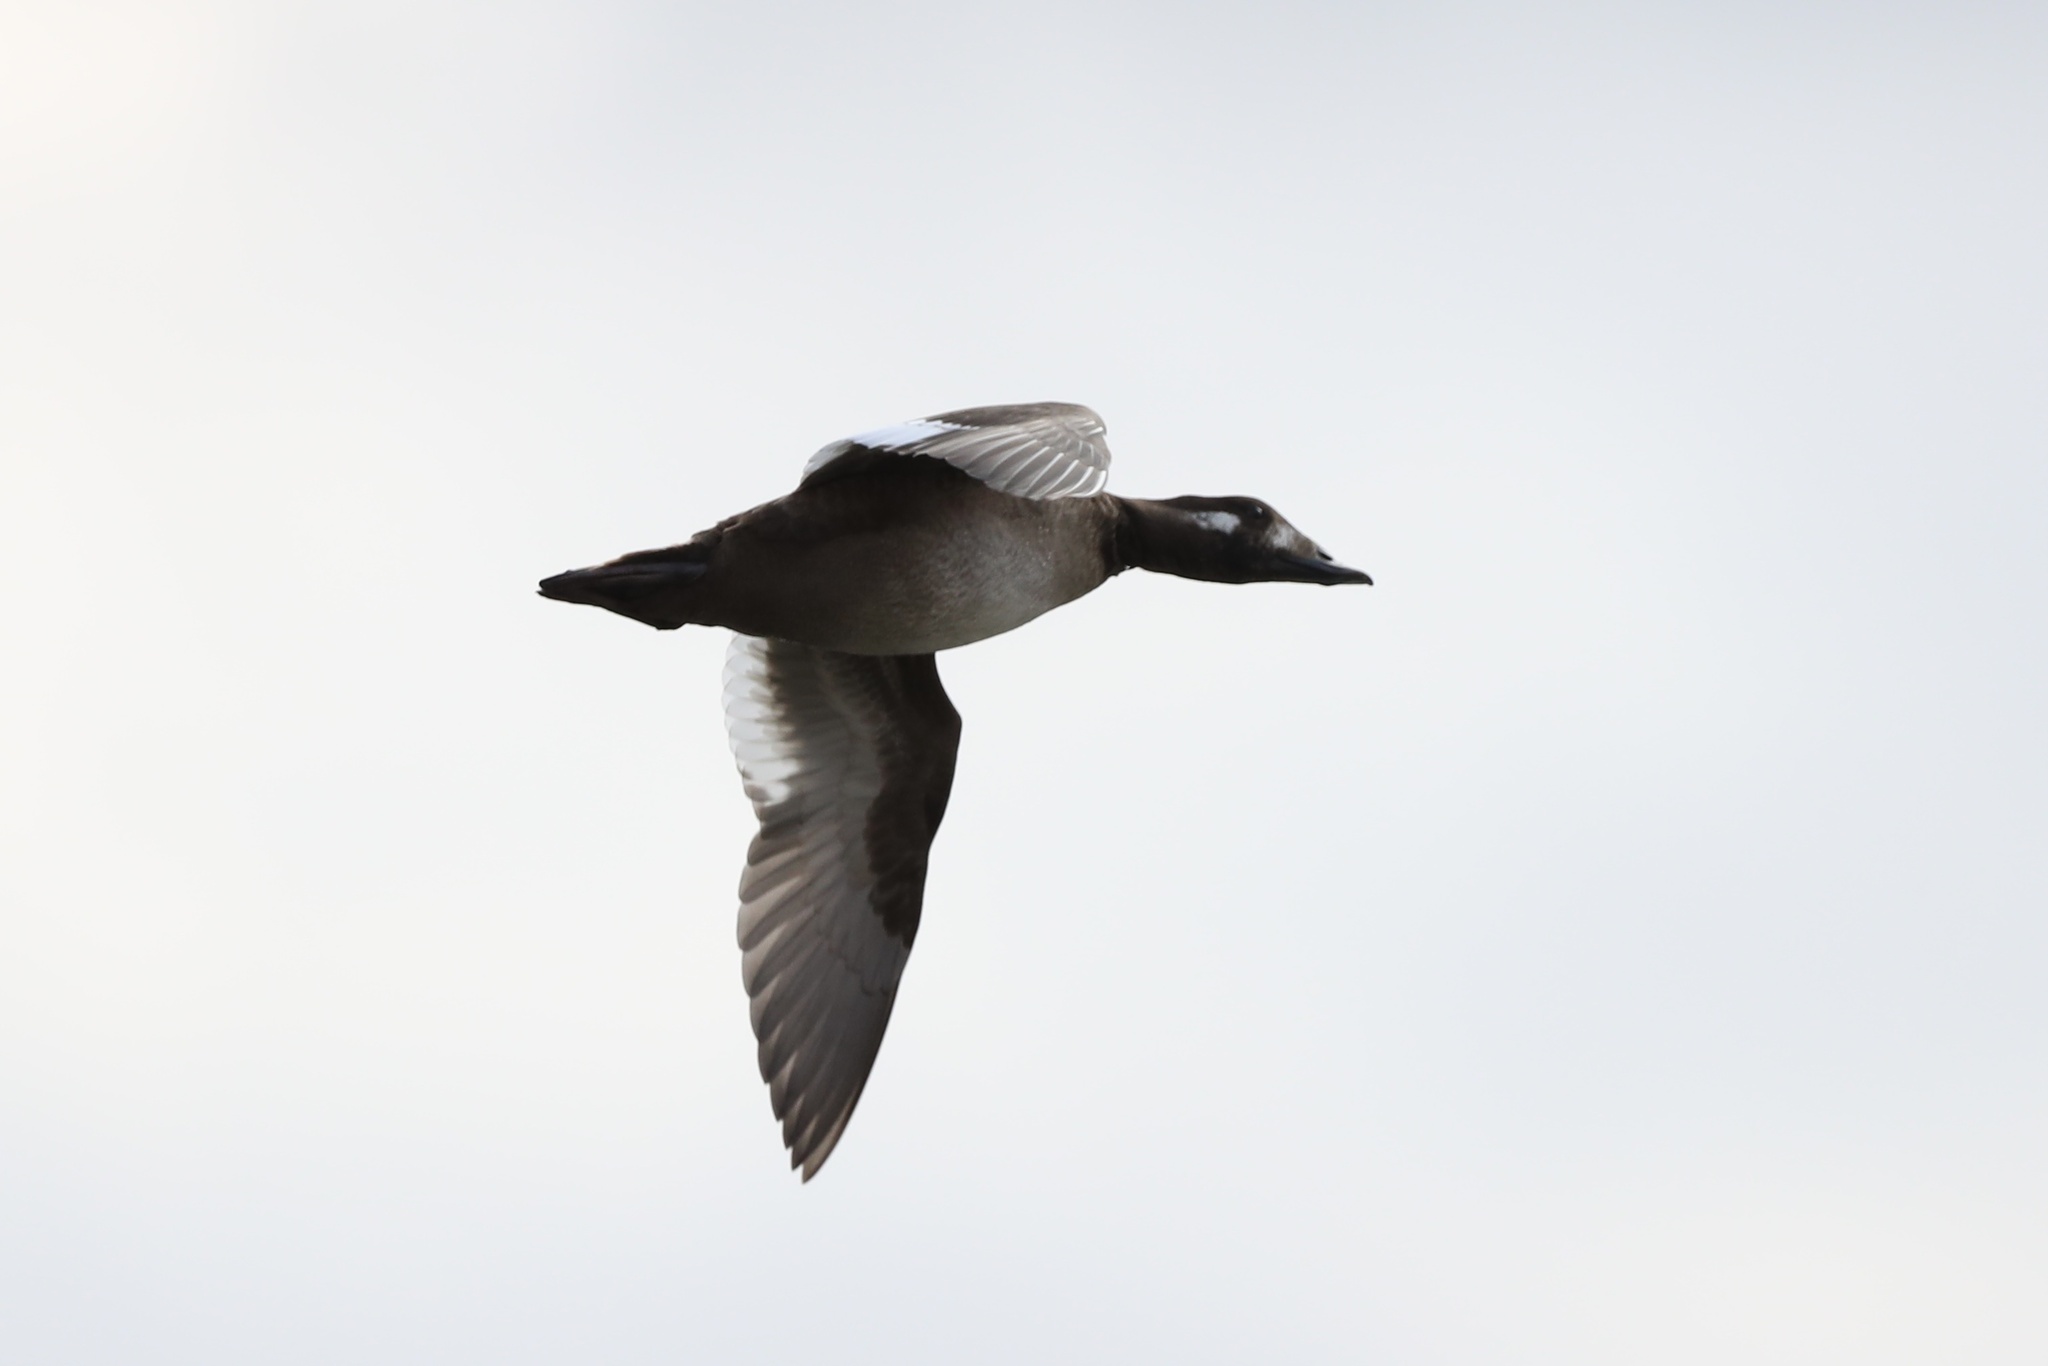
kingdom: Animalia
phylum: Chordata
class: Aves
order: Anseriformes
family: Anatidae
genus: Melanitta
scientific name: Melanitta deglandi
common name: White-winged scoter
